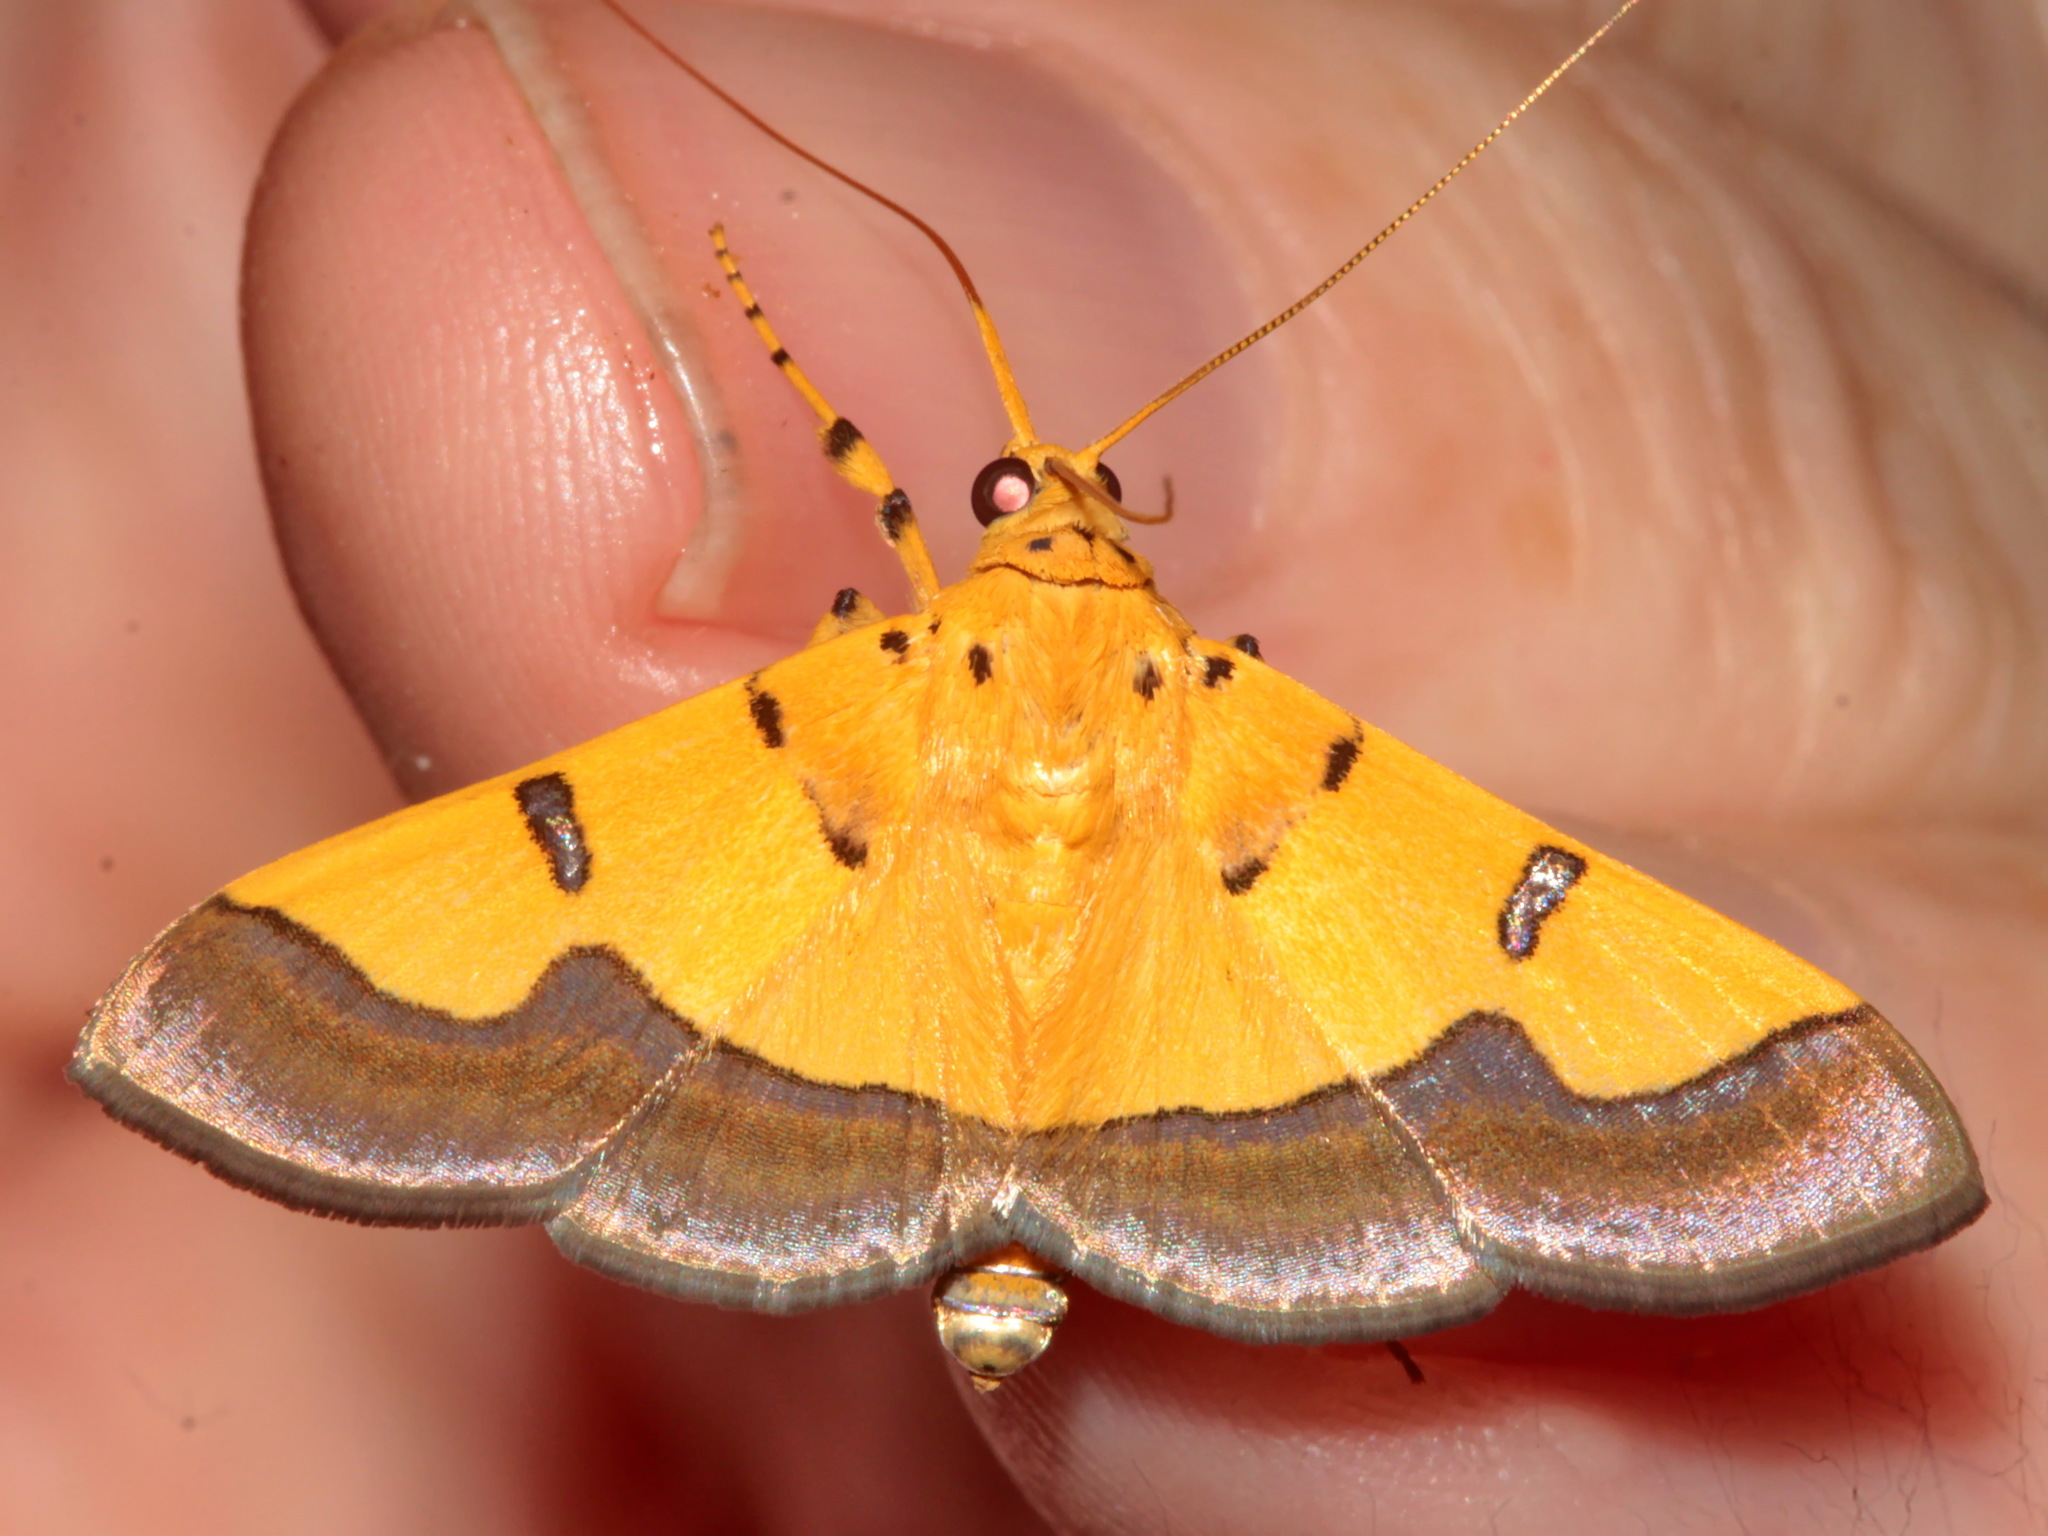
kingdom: Animalia
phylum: Arthropoda
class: Insecta
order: Lepidoptera
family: Crambidae
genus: Botyodes
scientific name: Botyodes
